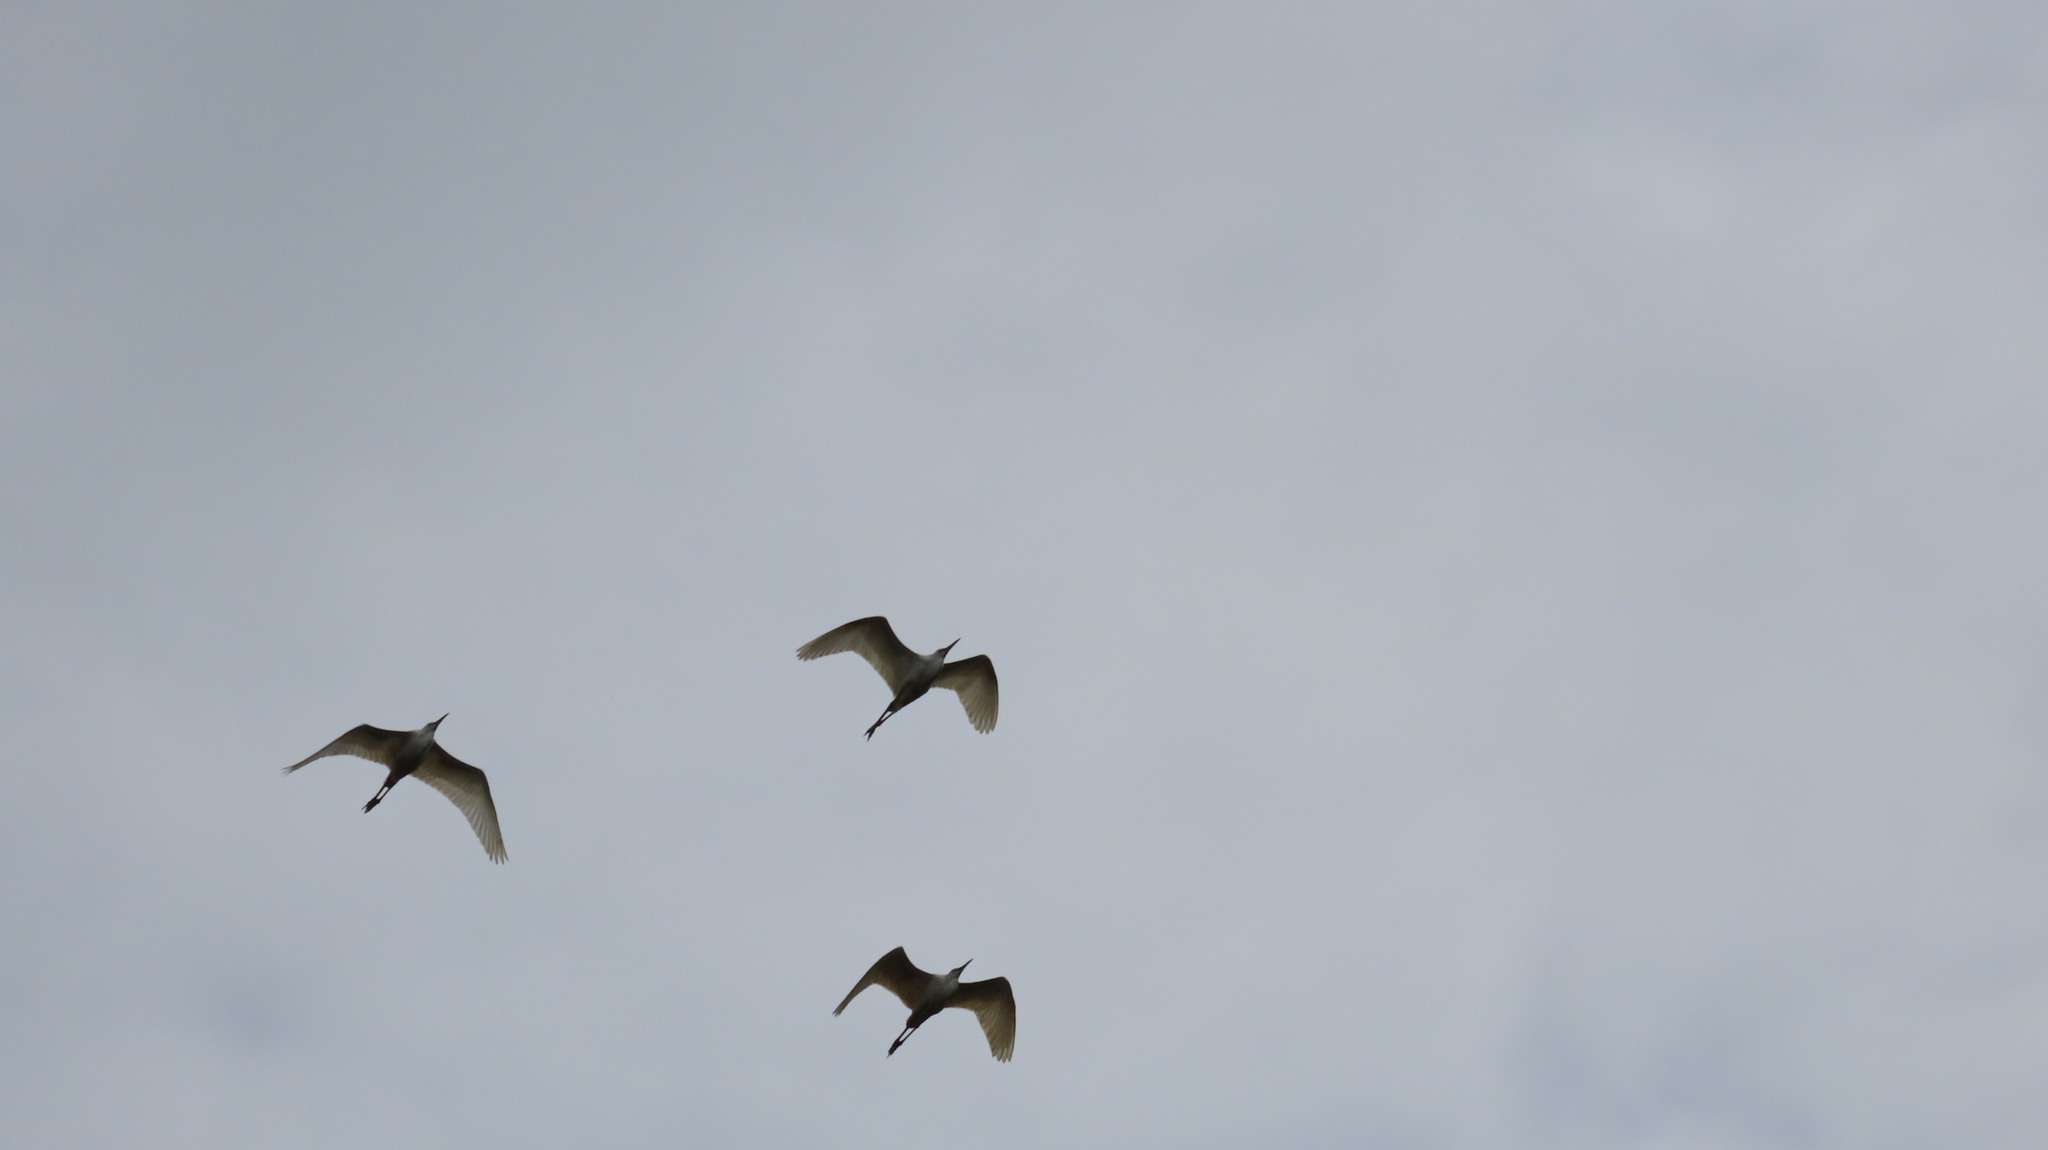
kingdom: Animalia
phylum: Chordata
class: Aves
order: Pelecaniformes
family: Ardeidae
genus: Bubulcus
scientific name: Bubulcus coromandus
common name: Eastern cattle egret
